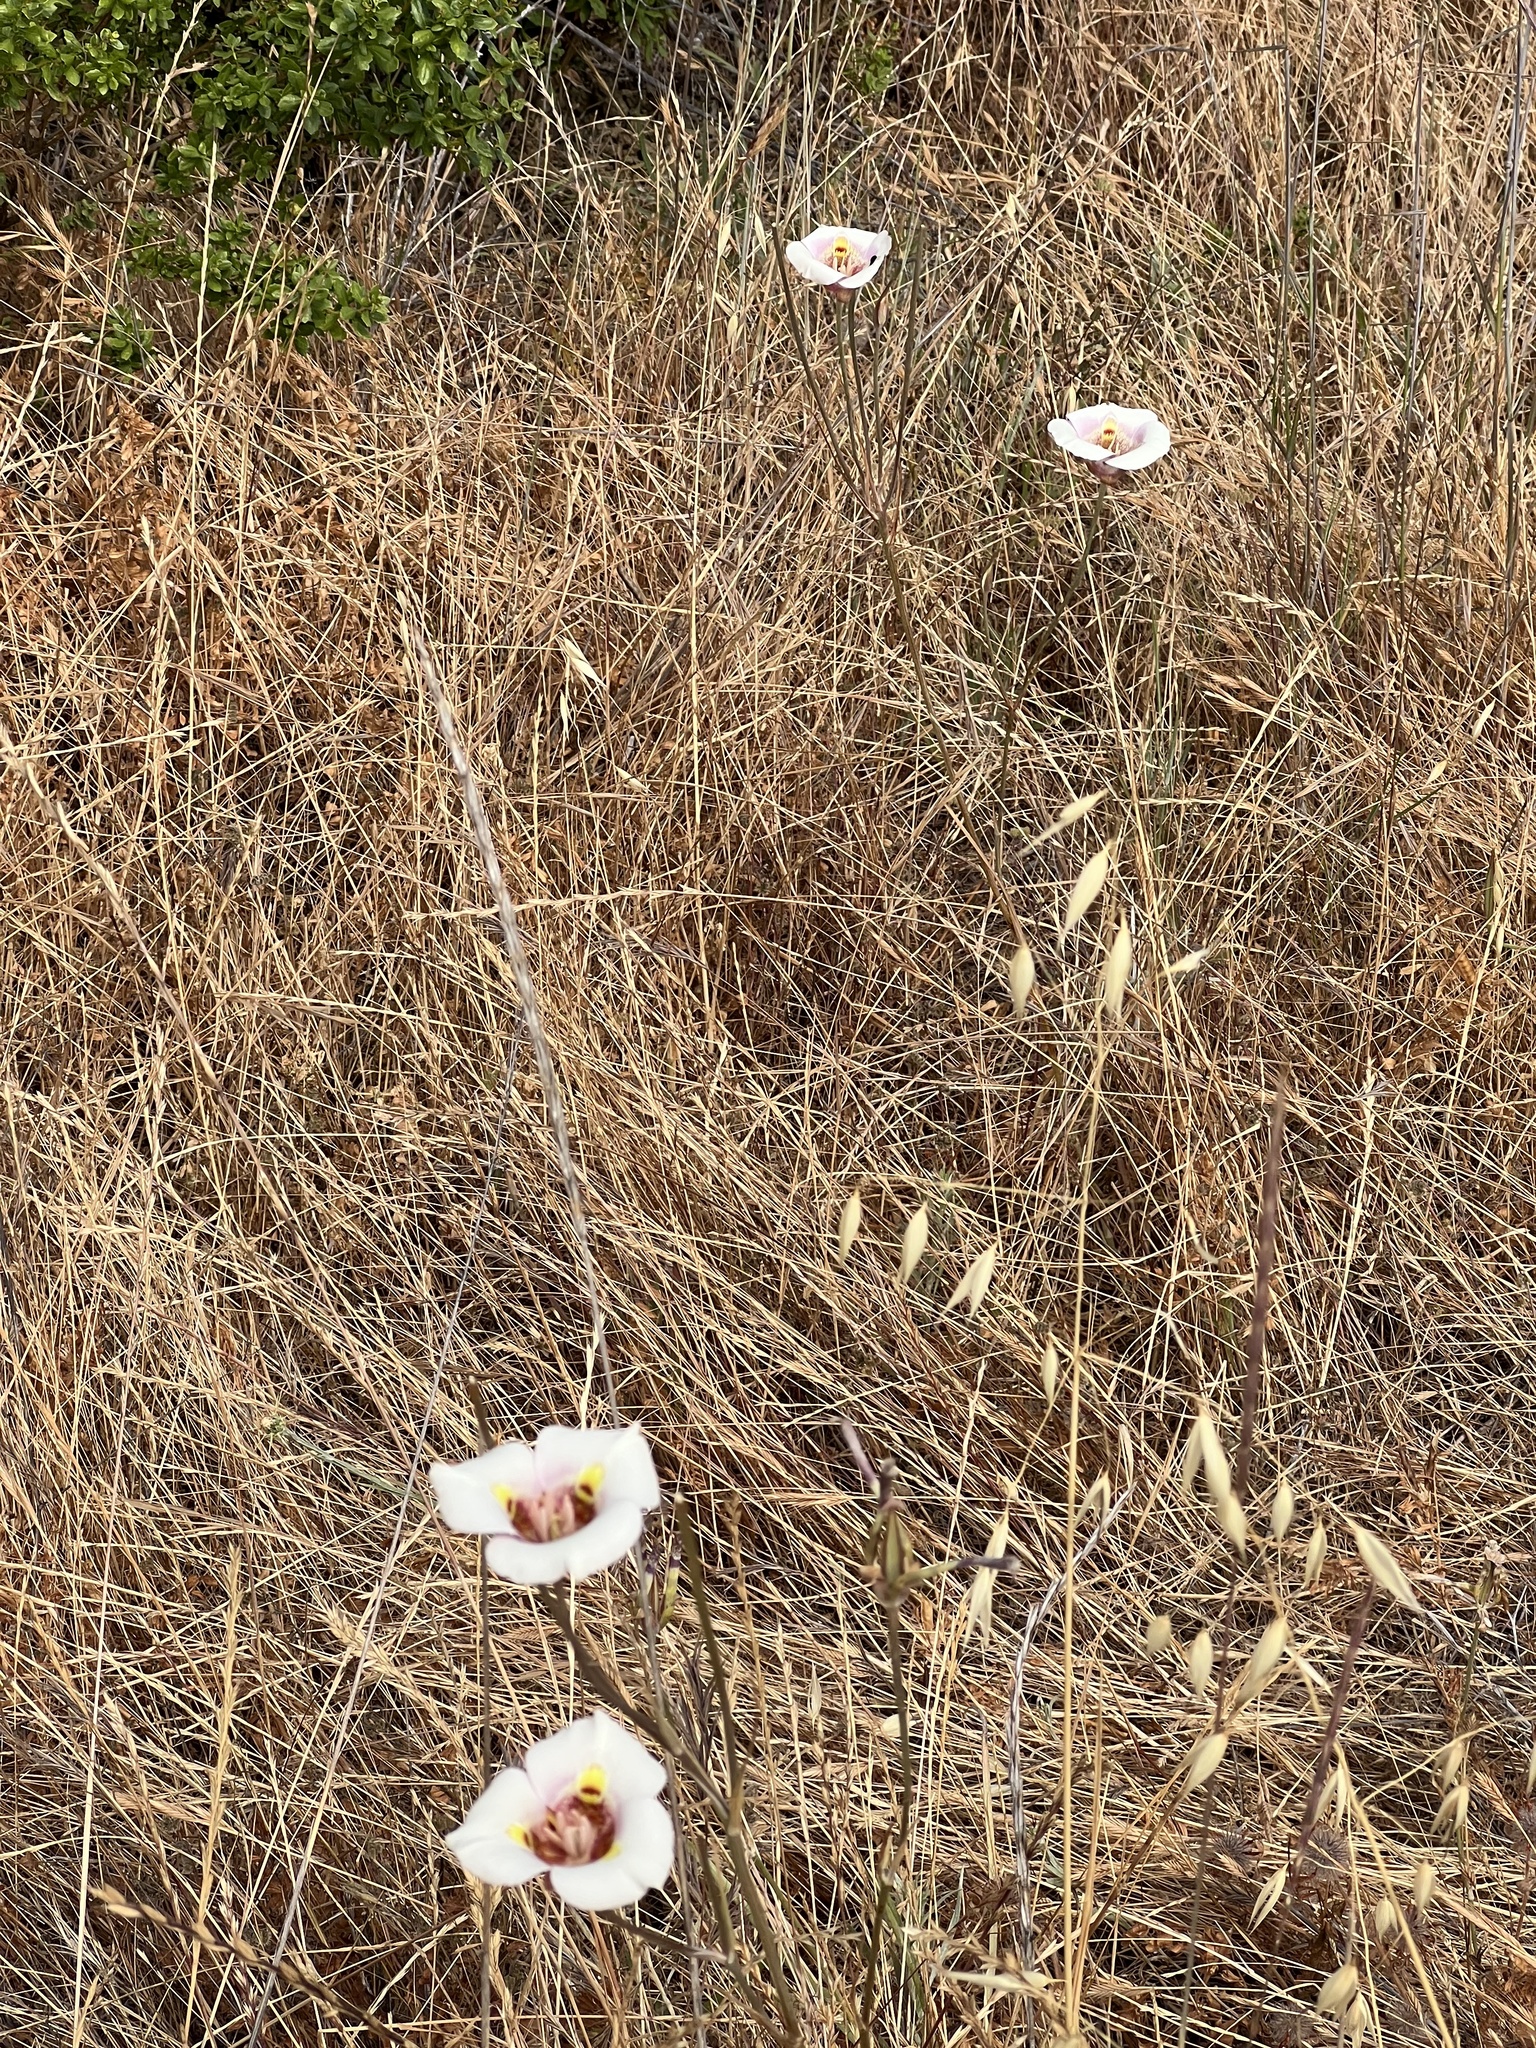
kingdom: Plantae
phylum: Tracheophyta
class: Liliopsida
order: Liliales
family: Liliaceae
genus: Calochortus
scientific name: Calochortus argillosus
